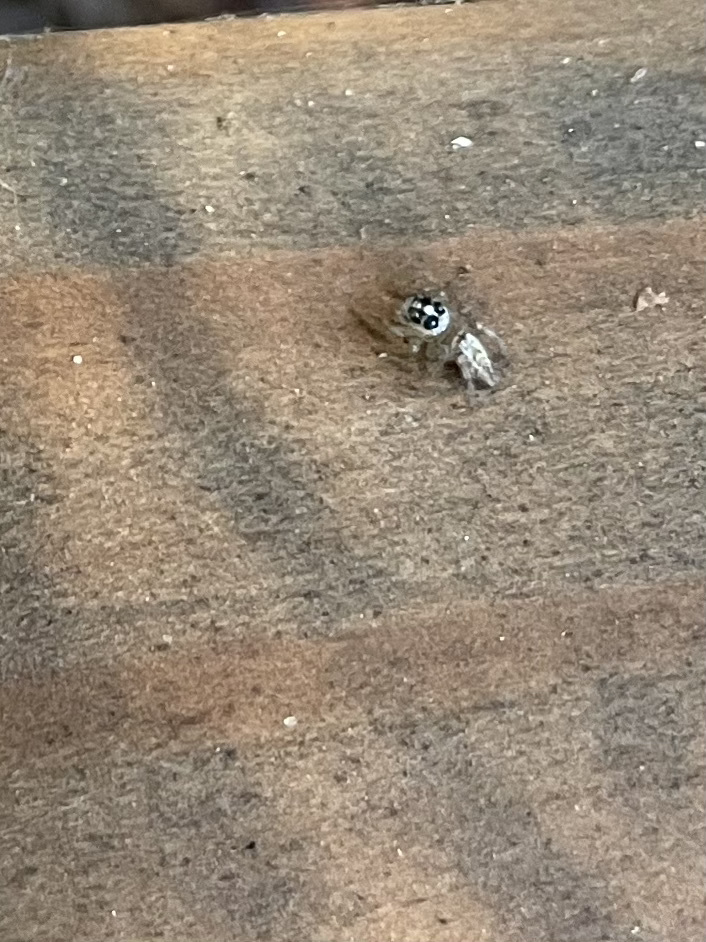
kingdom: Animalia
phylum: Arthropoda
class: Arachnida
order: Araneae
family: Salticidae
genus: Colonus
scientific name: Colonus hesperus
